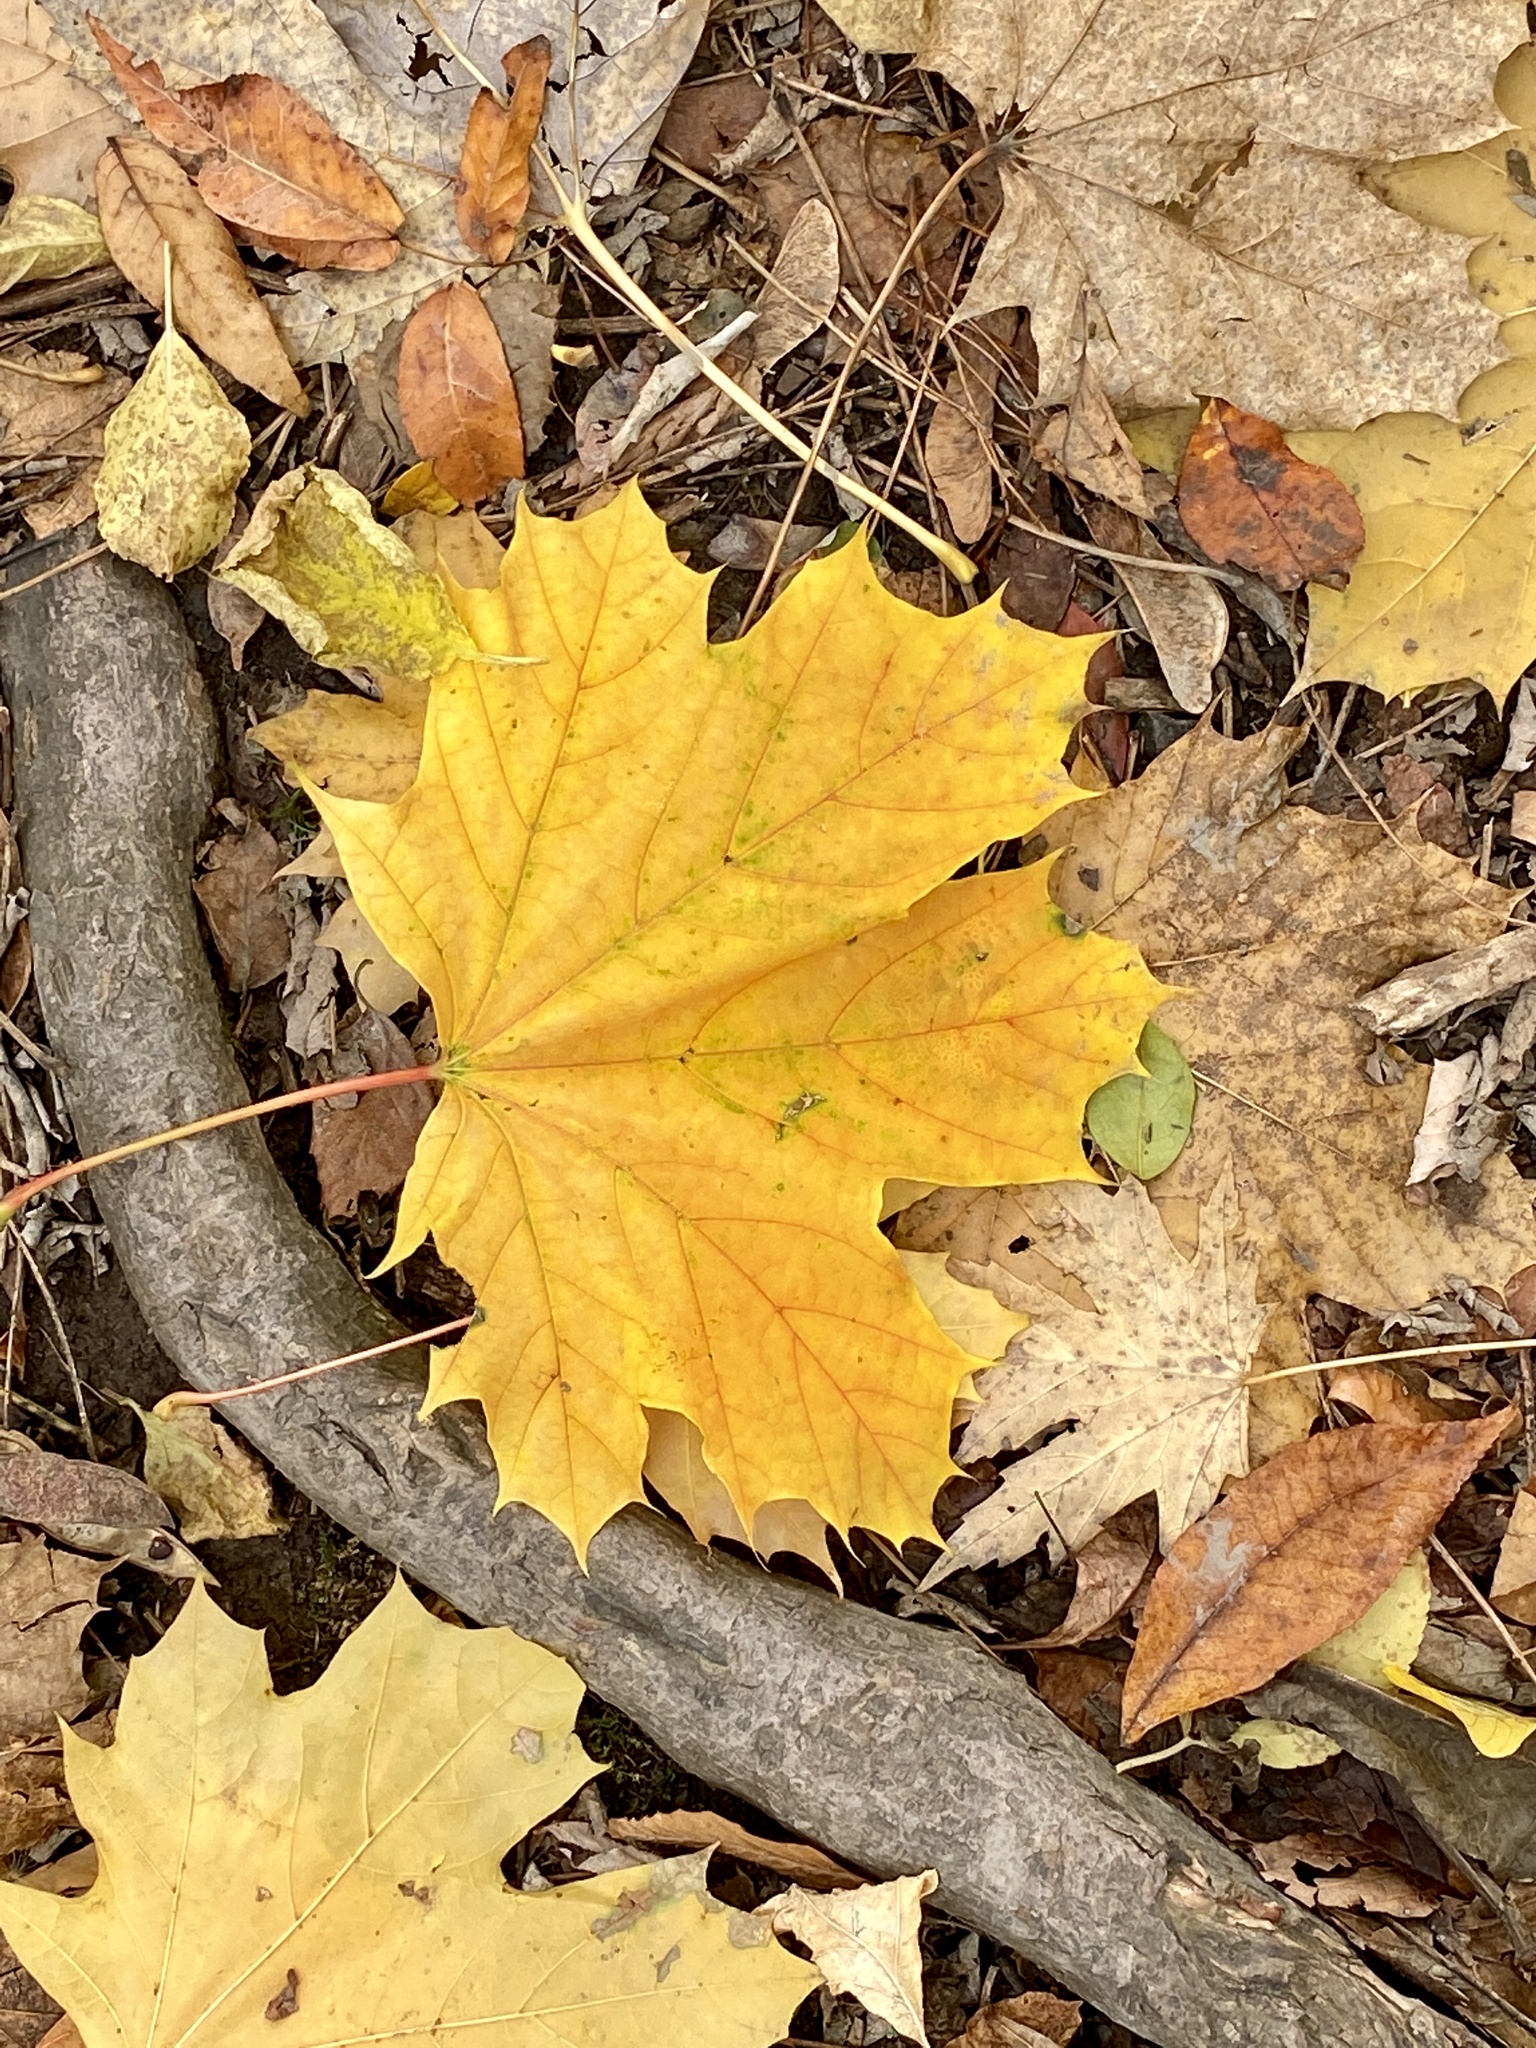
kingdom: Plantae
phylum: Tracheophyta
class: Magnoliopsida
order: Sapindales
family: Sapindaceae
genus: Acer
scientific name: Acer platanoides
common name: Norway maple
